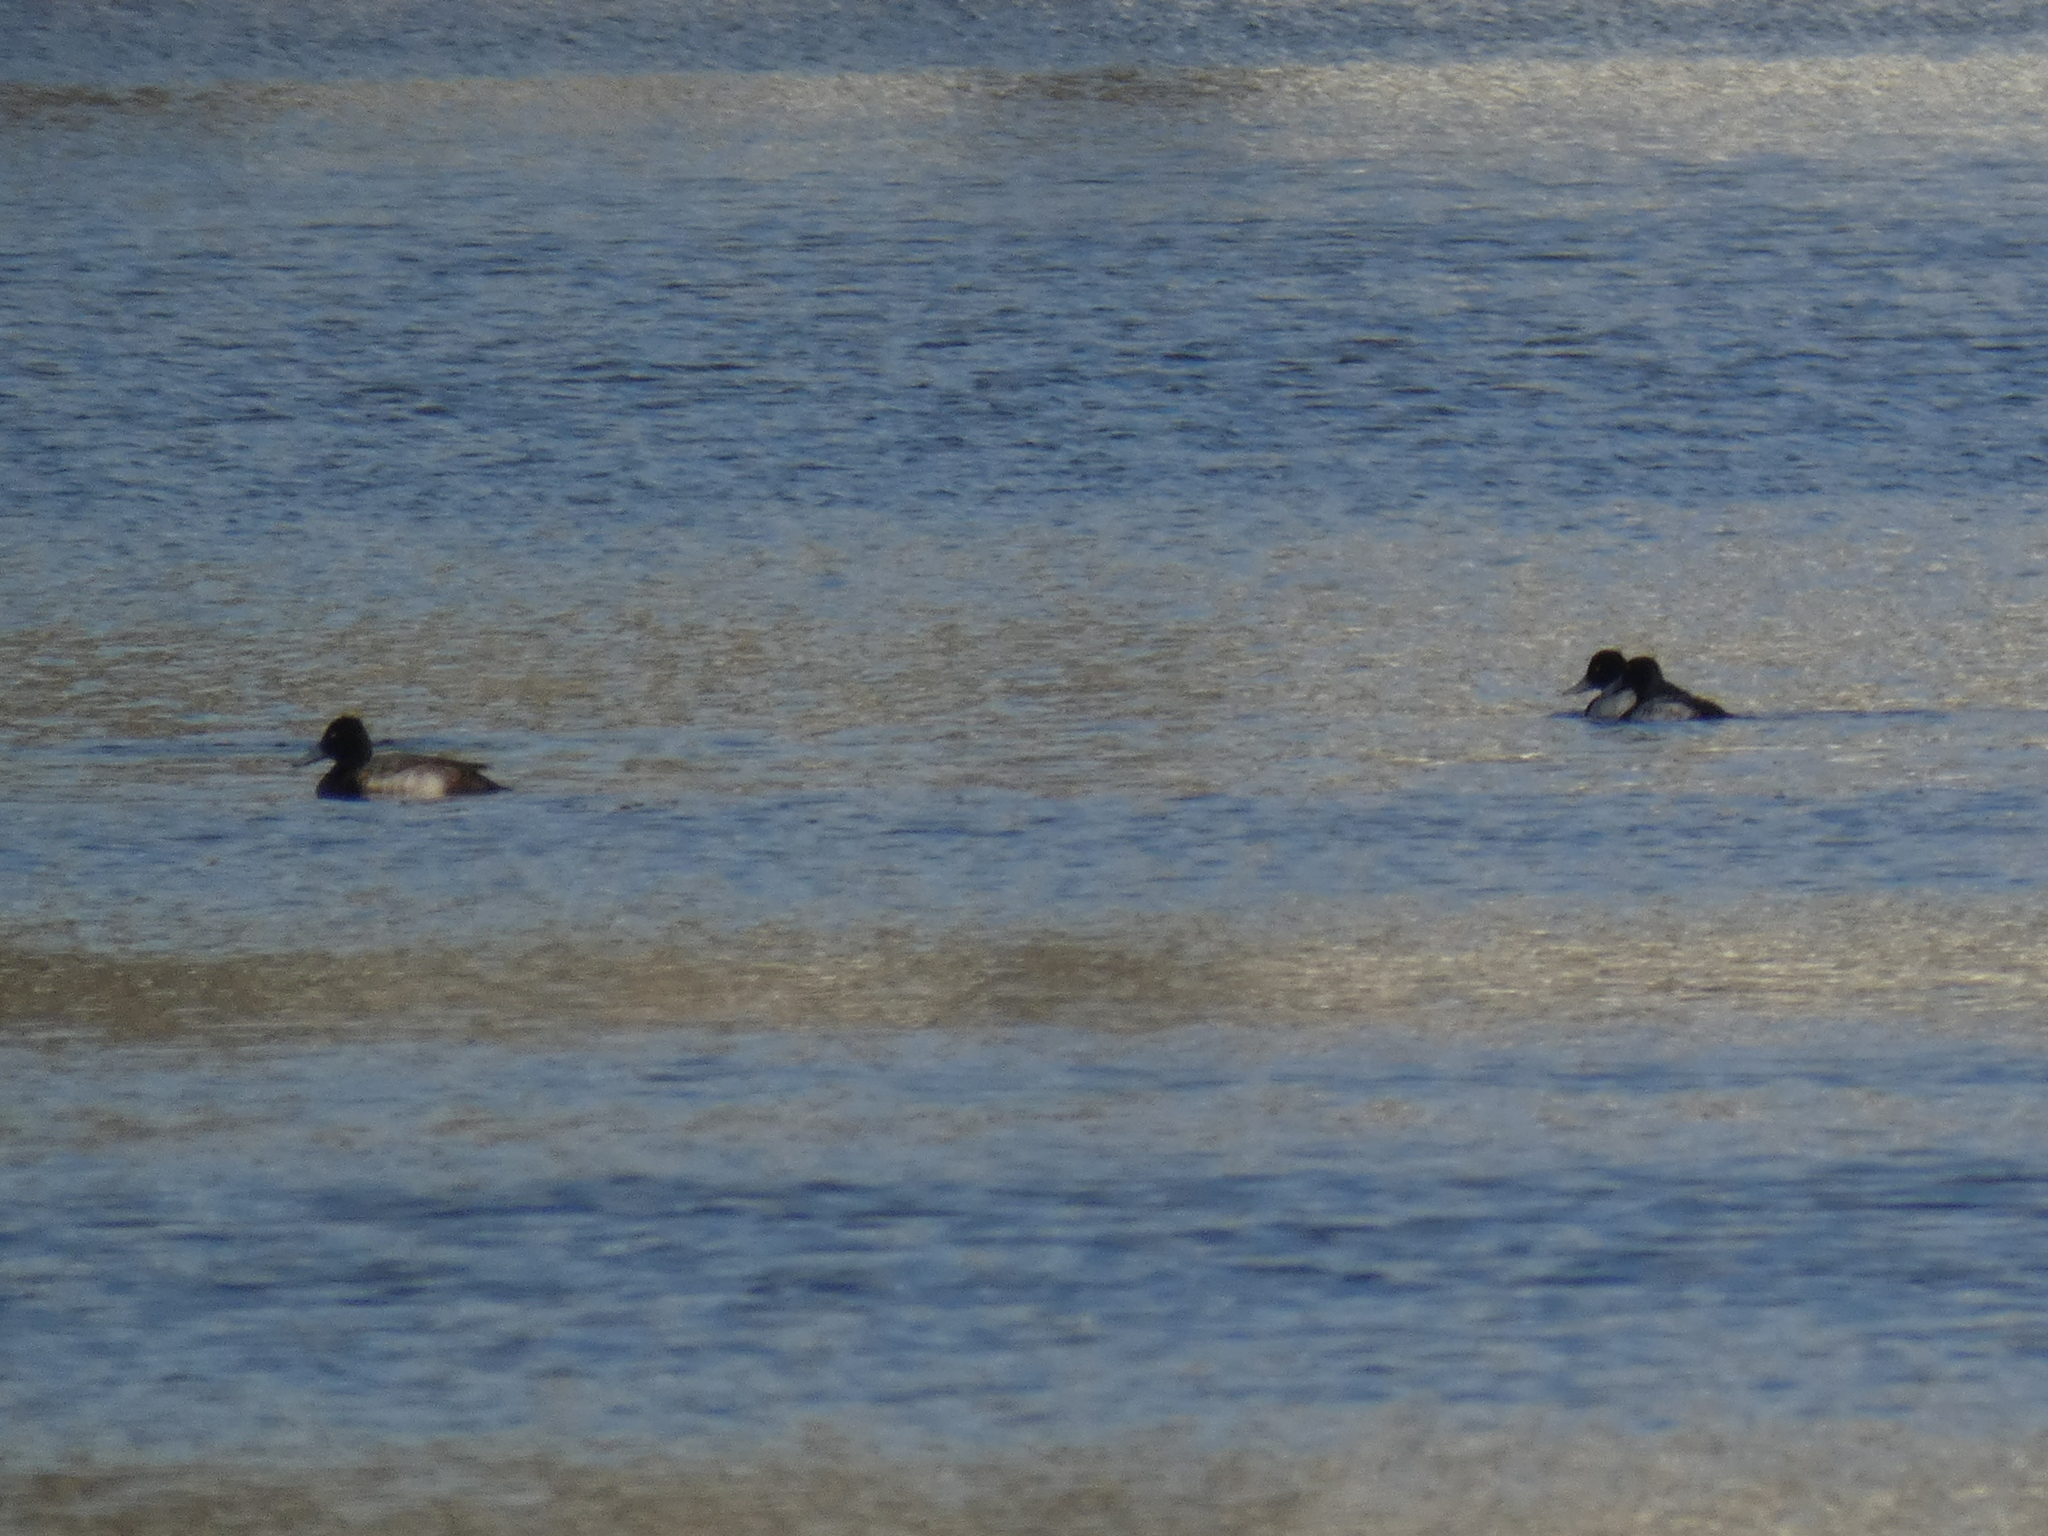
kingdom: Animalia
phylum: Chordata
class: Aves
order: Anseriformes
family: Anatidae
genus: Aythya
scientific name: Aythya affinis
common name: Lesser scaup
